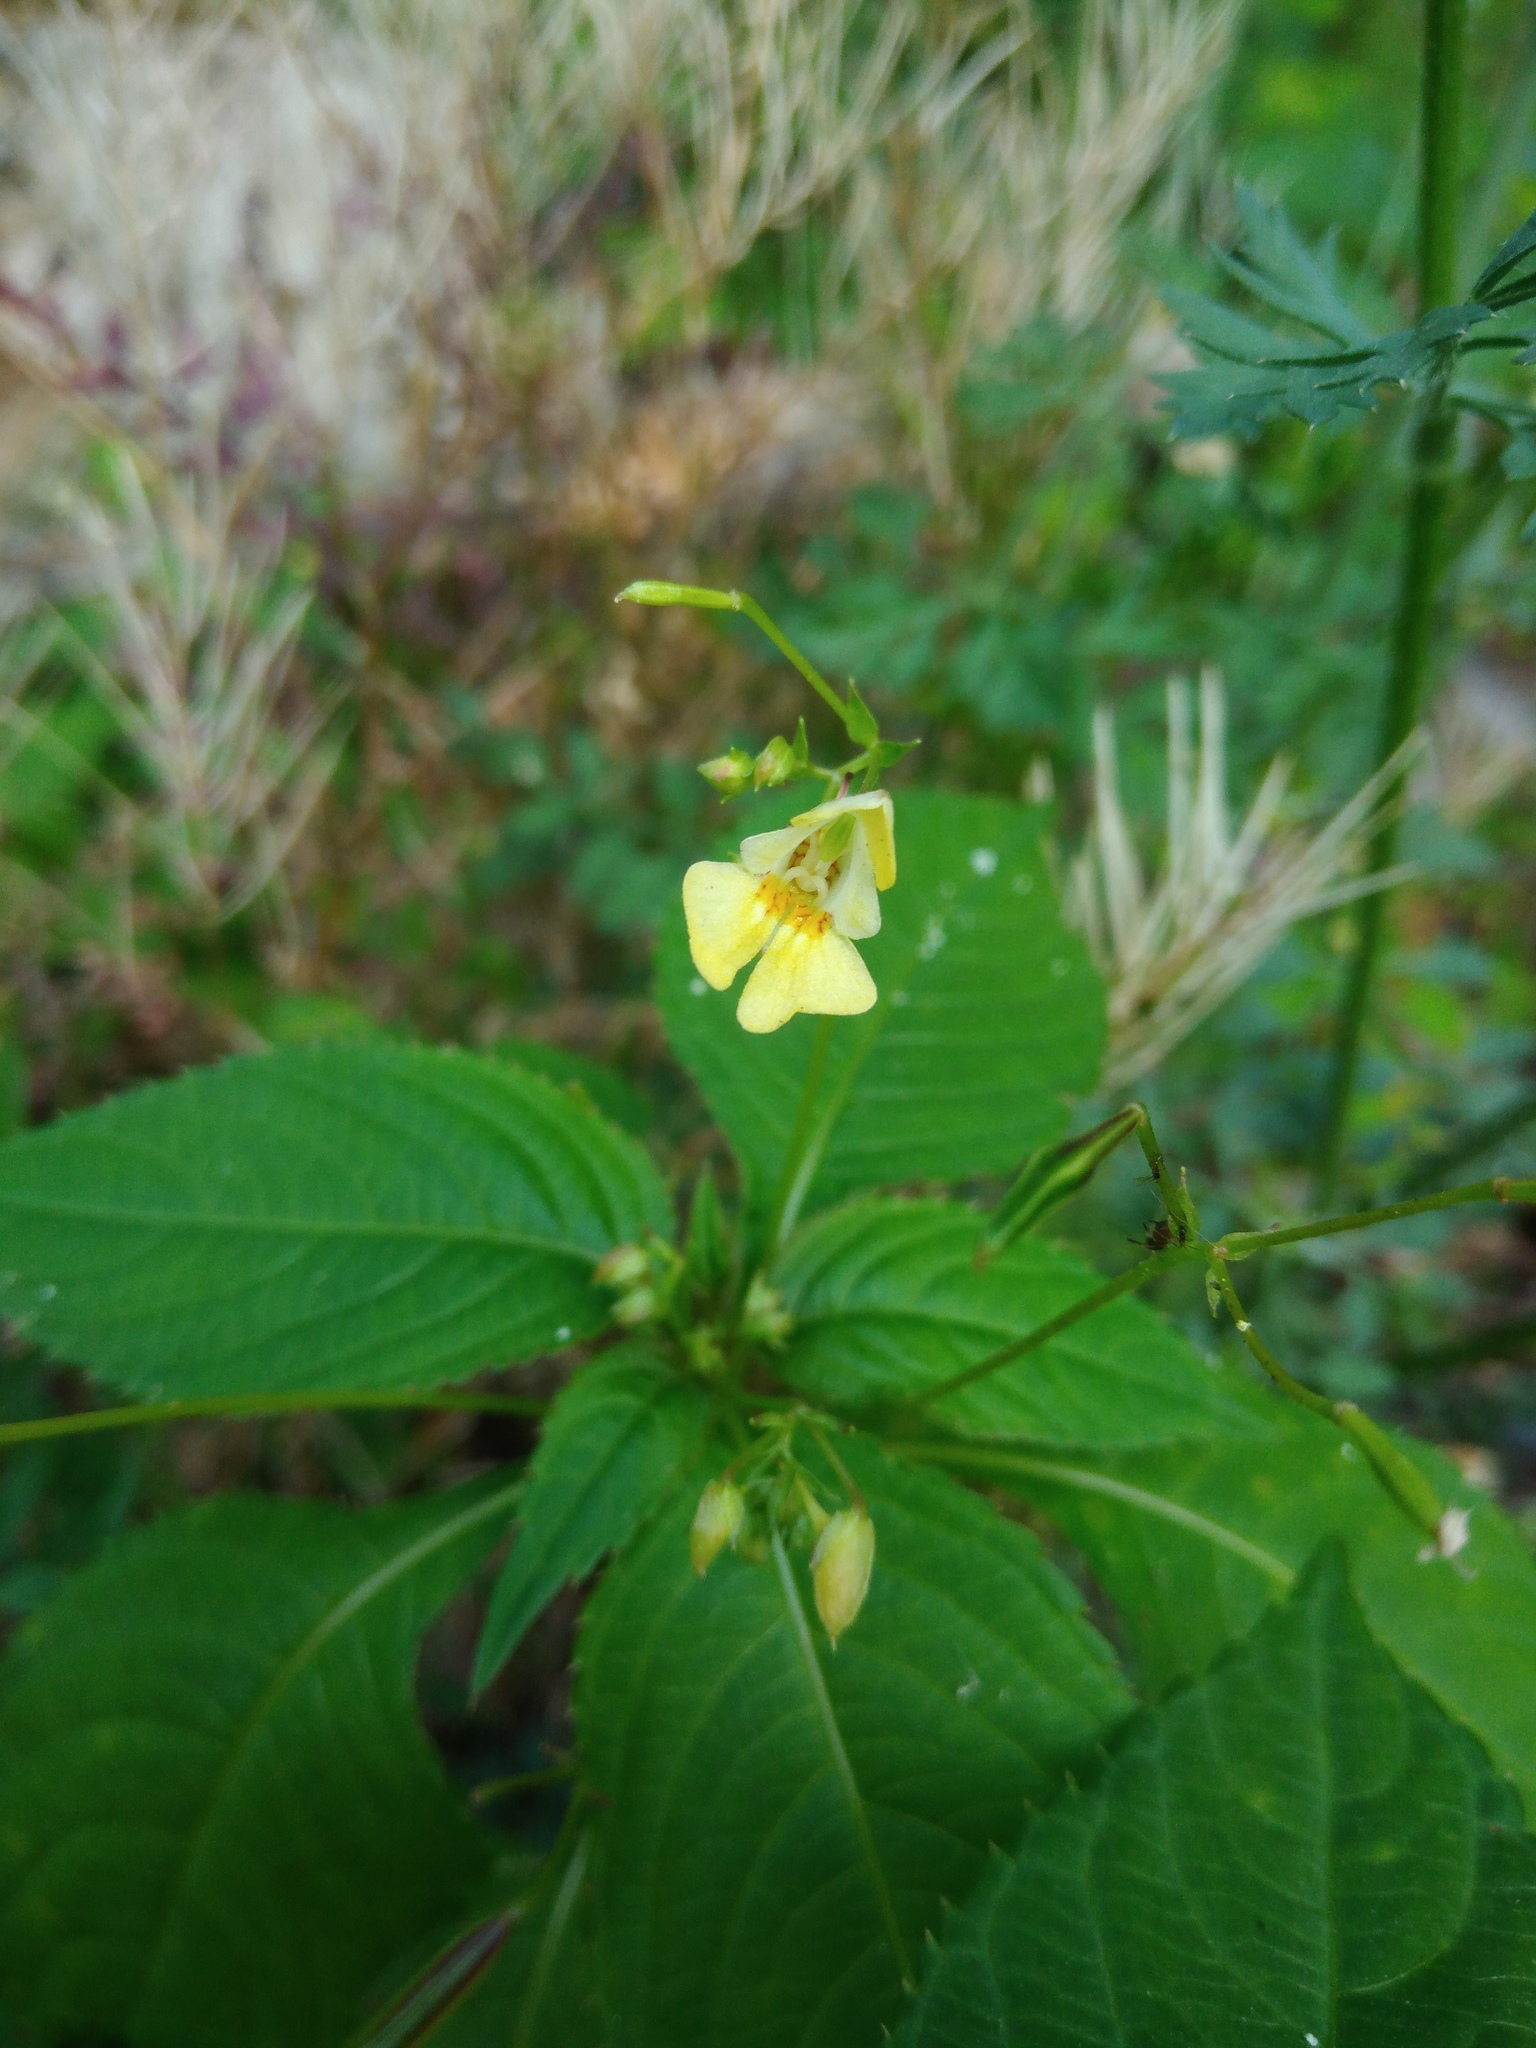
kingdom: Plantae
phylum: Tracheophyta
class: Magnoliopsida
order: Ericales
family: Balsaminaceae
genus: Impatiens
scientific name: Impatiens parviflora
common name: Small balsam
